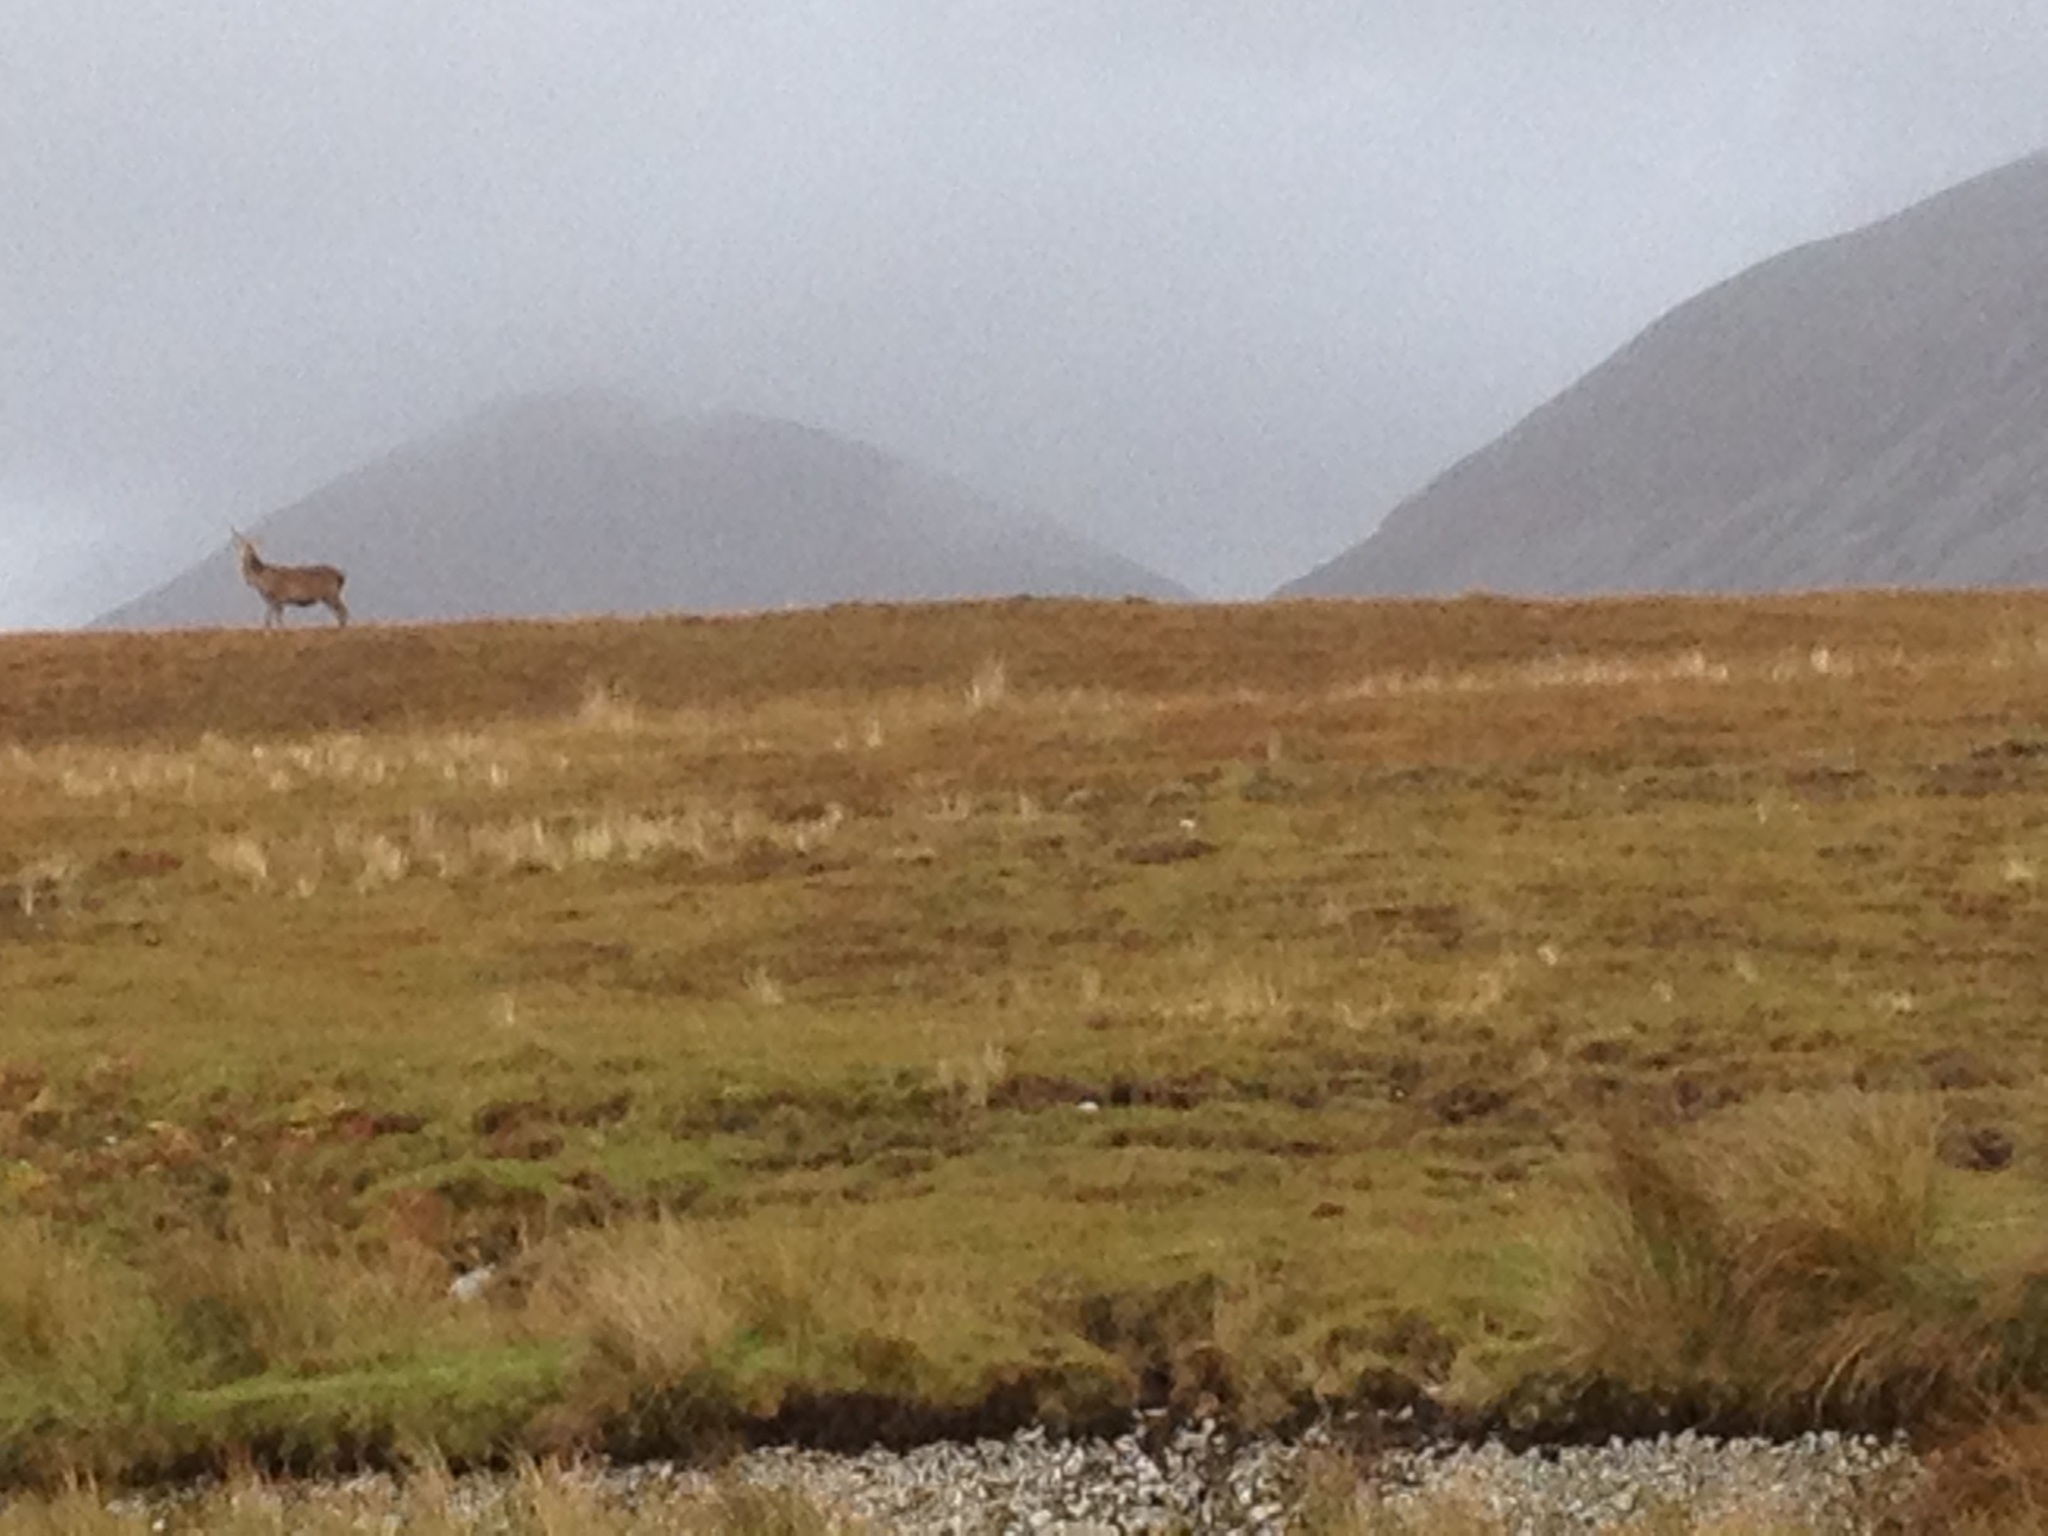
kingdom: Animalia
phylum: Chordata
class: Mammalia
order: Artiodactyla
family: Cervidae
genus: Cervus
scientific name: Cervus elaphus
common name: Red deer
